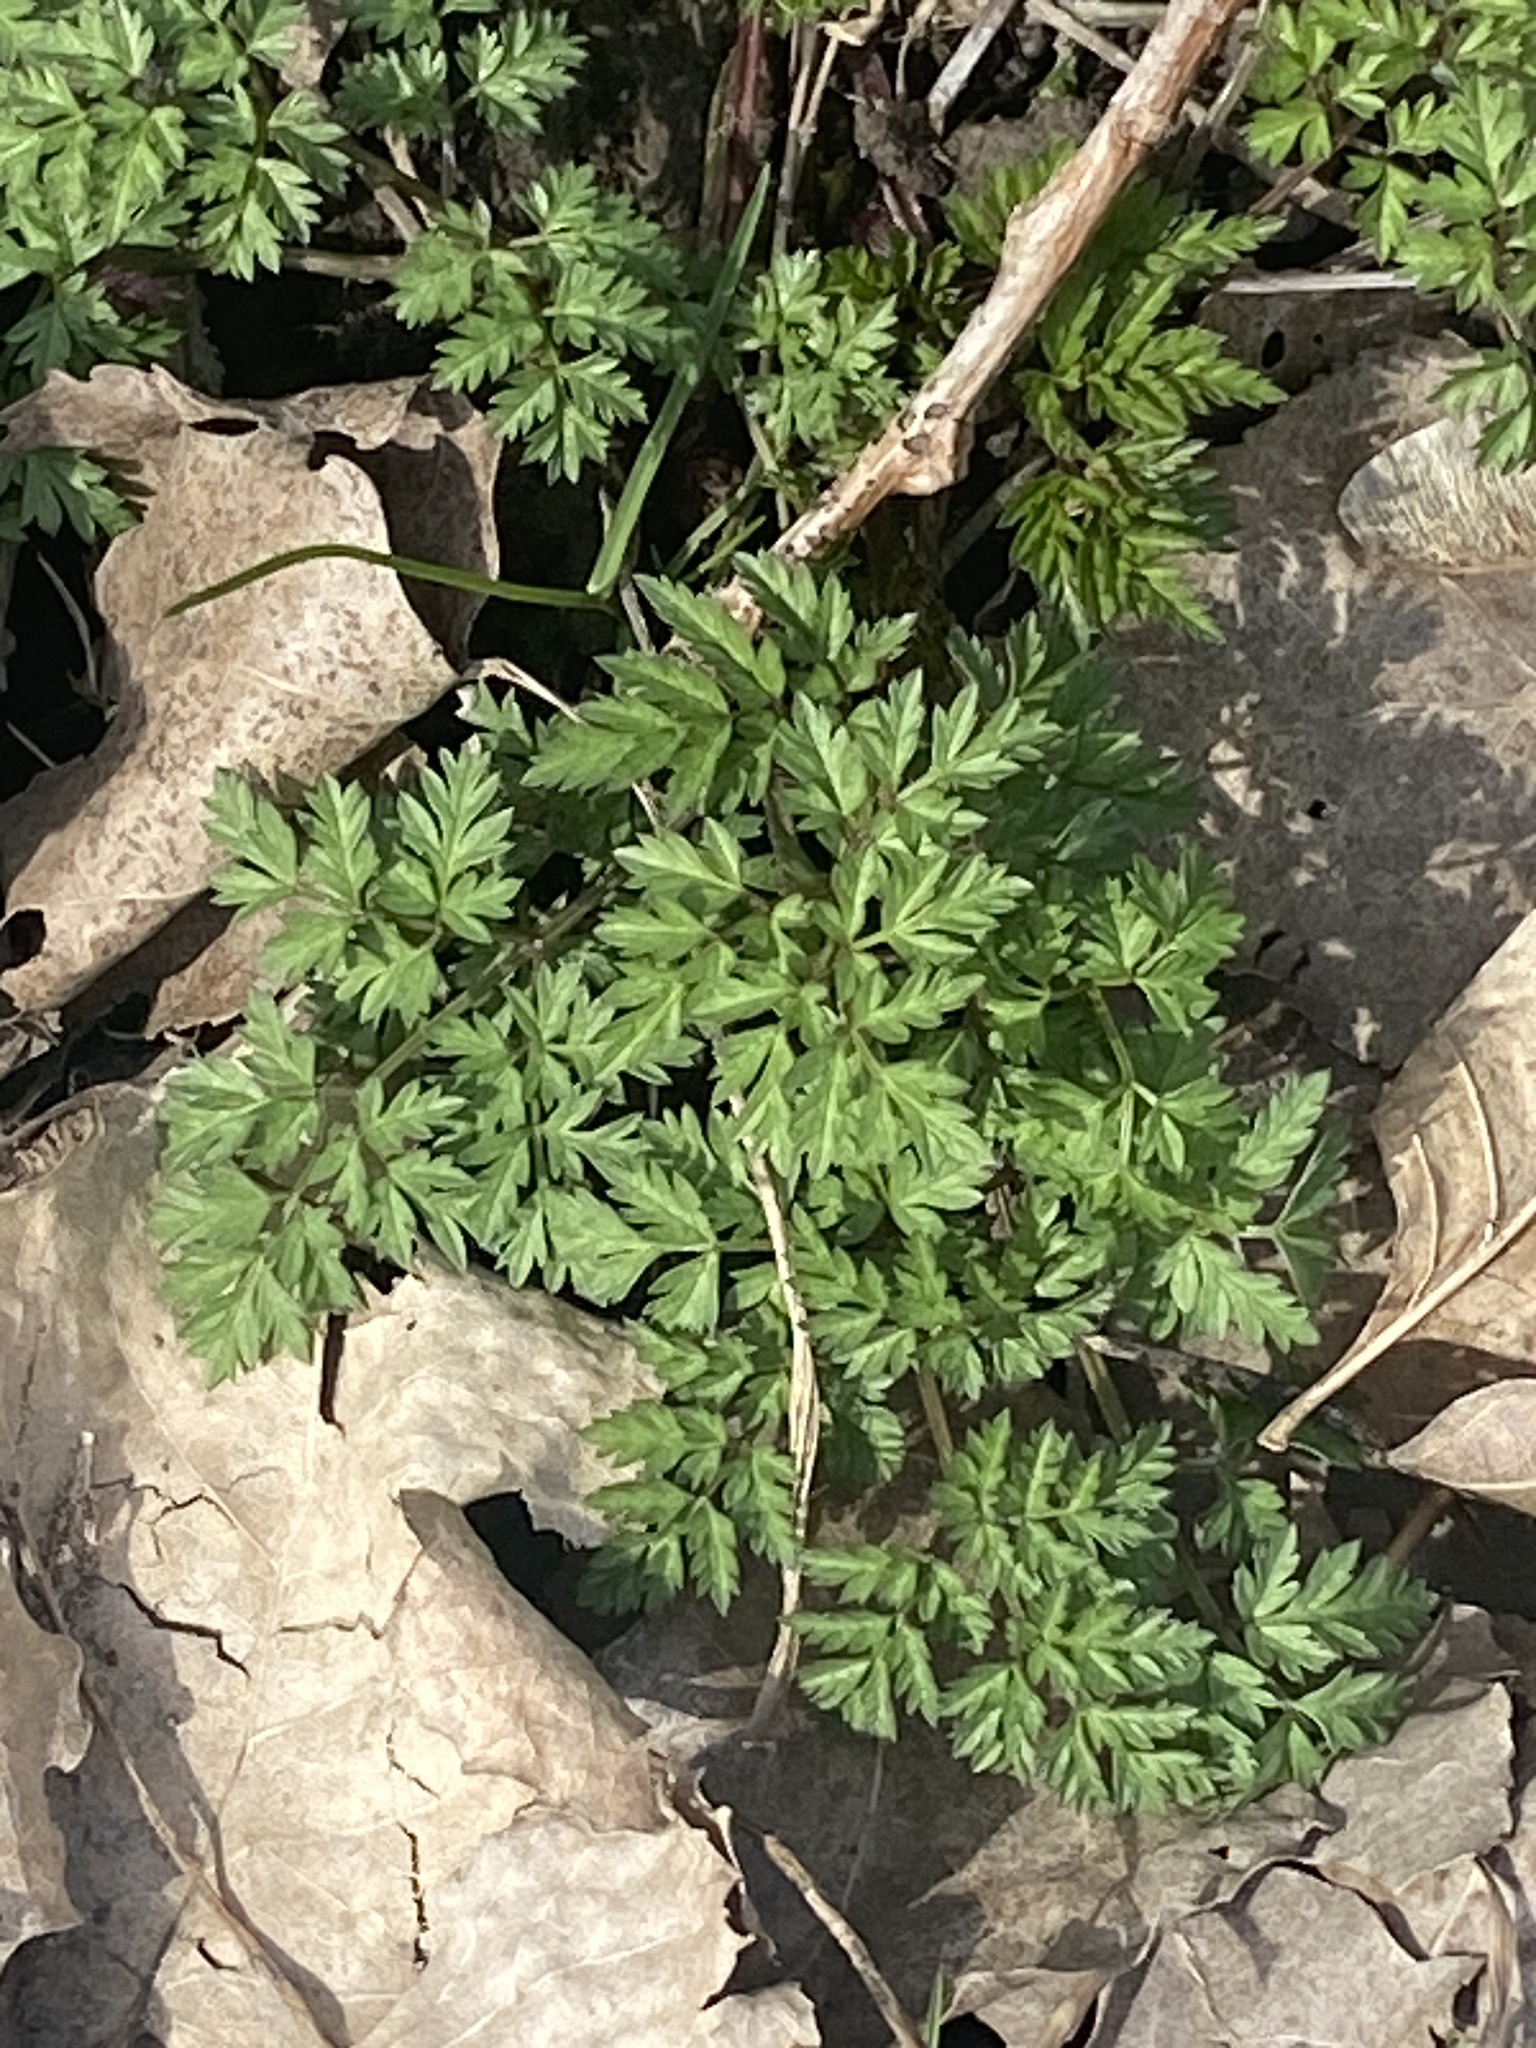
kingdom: Plantae
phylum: Tracheophyta
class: Magnoliopsida
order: Apiales
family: Apiaceae
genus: Anthriscus
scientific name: Anthriscus sylvestris
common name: Cow parsley
